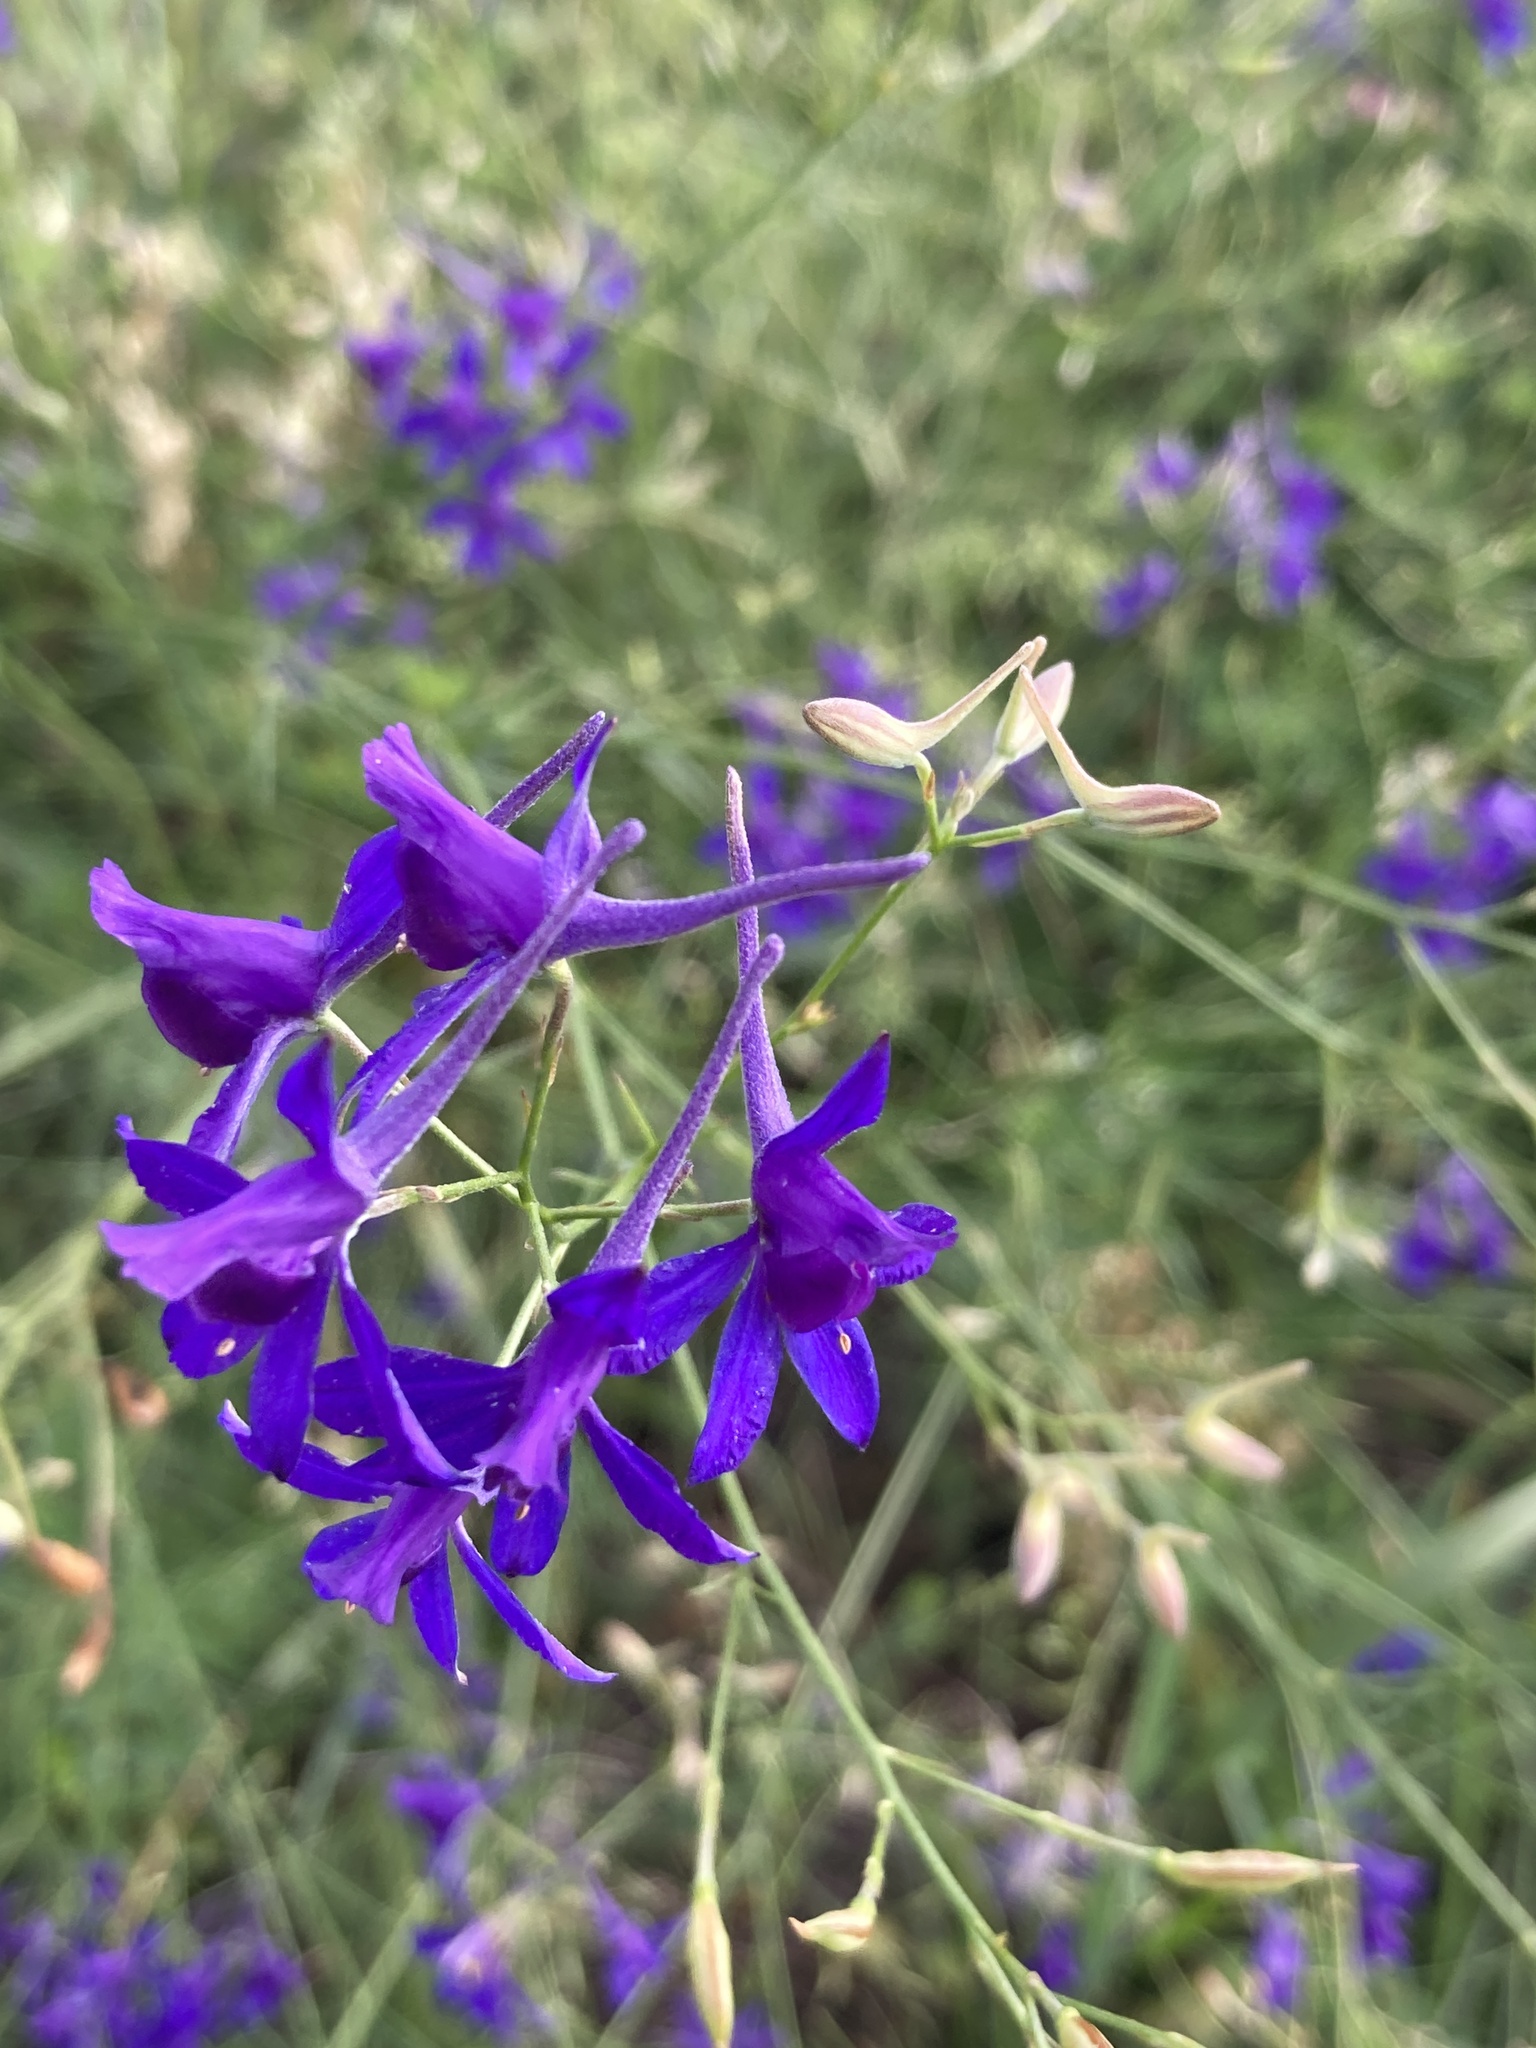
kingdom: Plantae
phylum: Tracheophyta
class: Magnoliopsida
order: Ranunculales
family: Ranunculaceae
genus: Delphinium
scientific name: Delphinium consolida
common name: Branching larkspur
